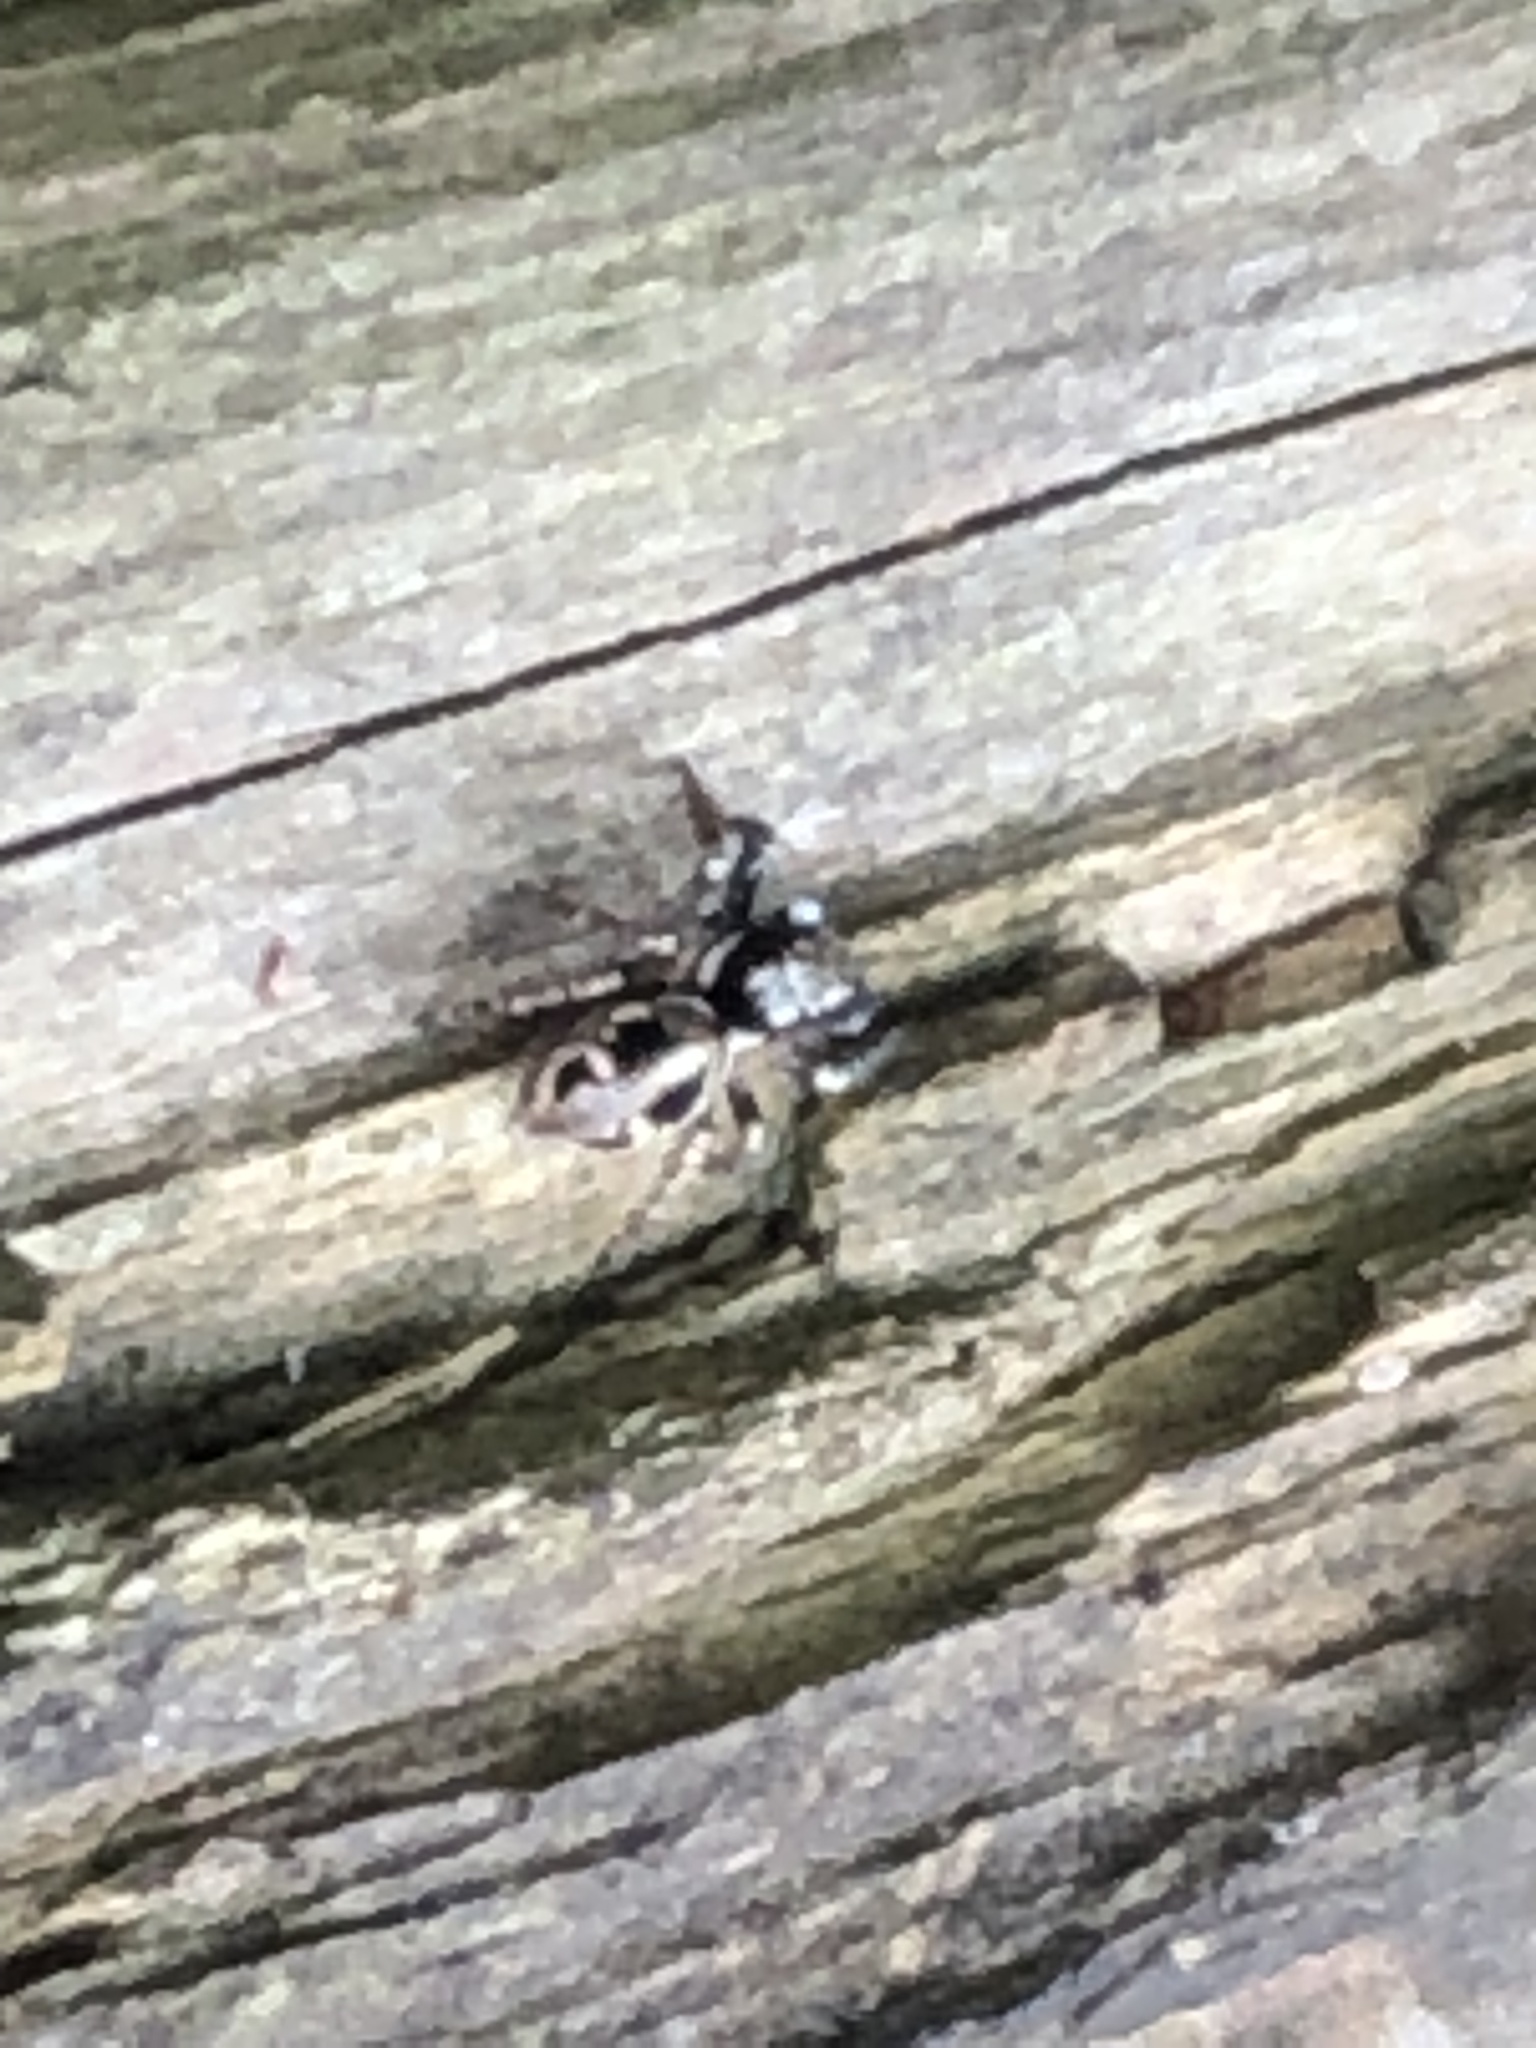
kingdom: Animalia
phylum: Arthropoda
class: Arachnida
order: Araneae
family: Salticidae
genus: Anasaitis
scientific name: Anasaitis canosa
